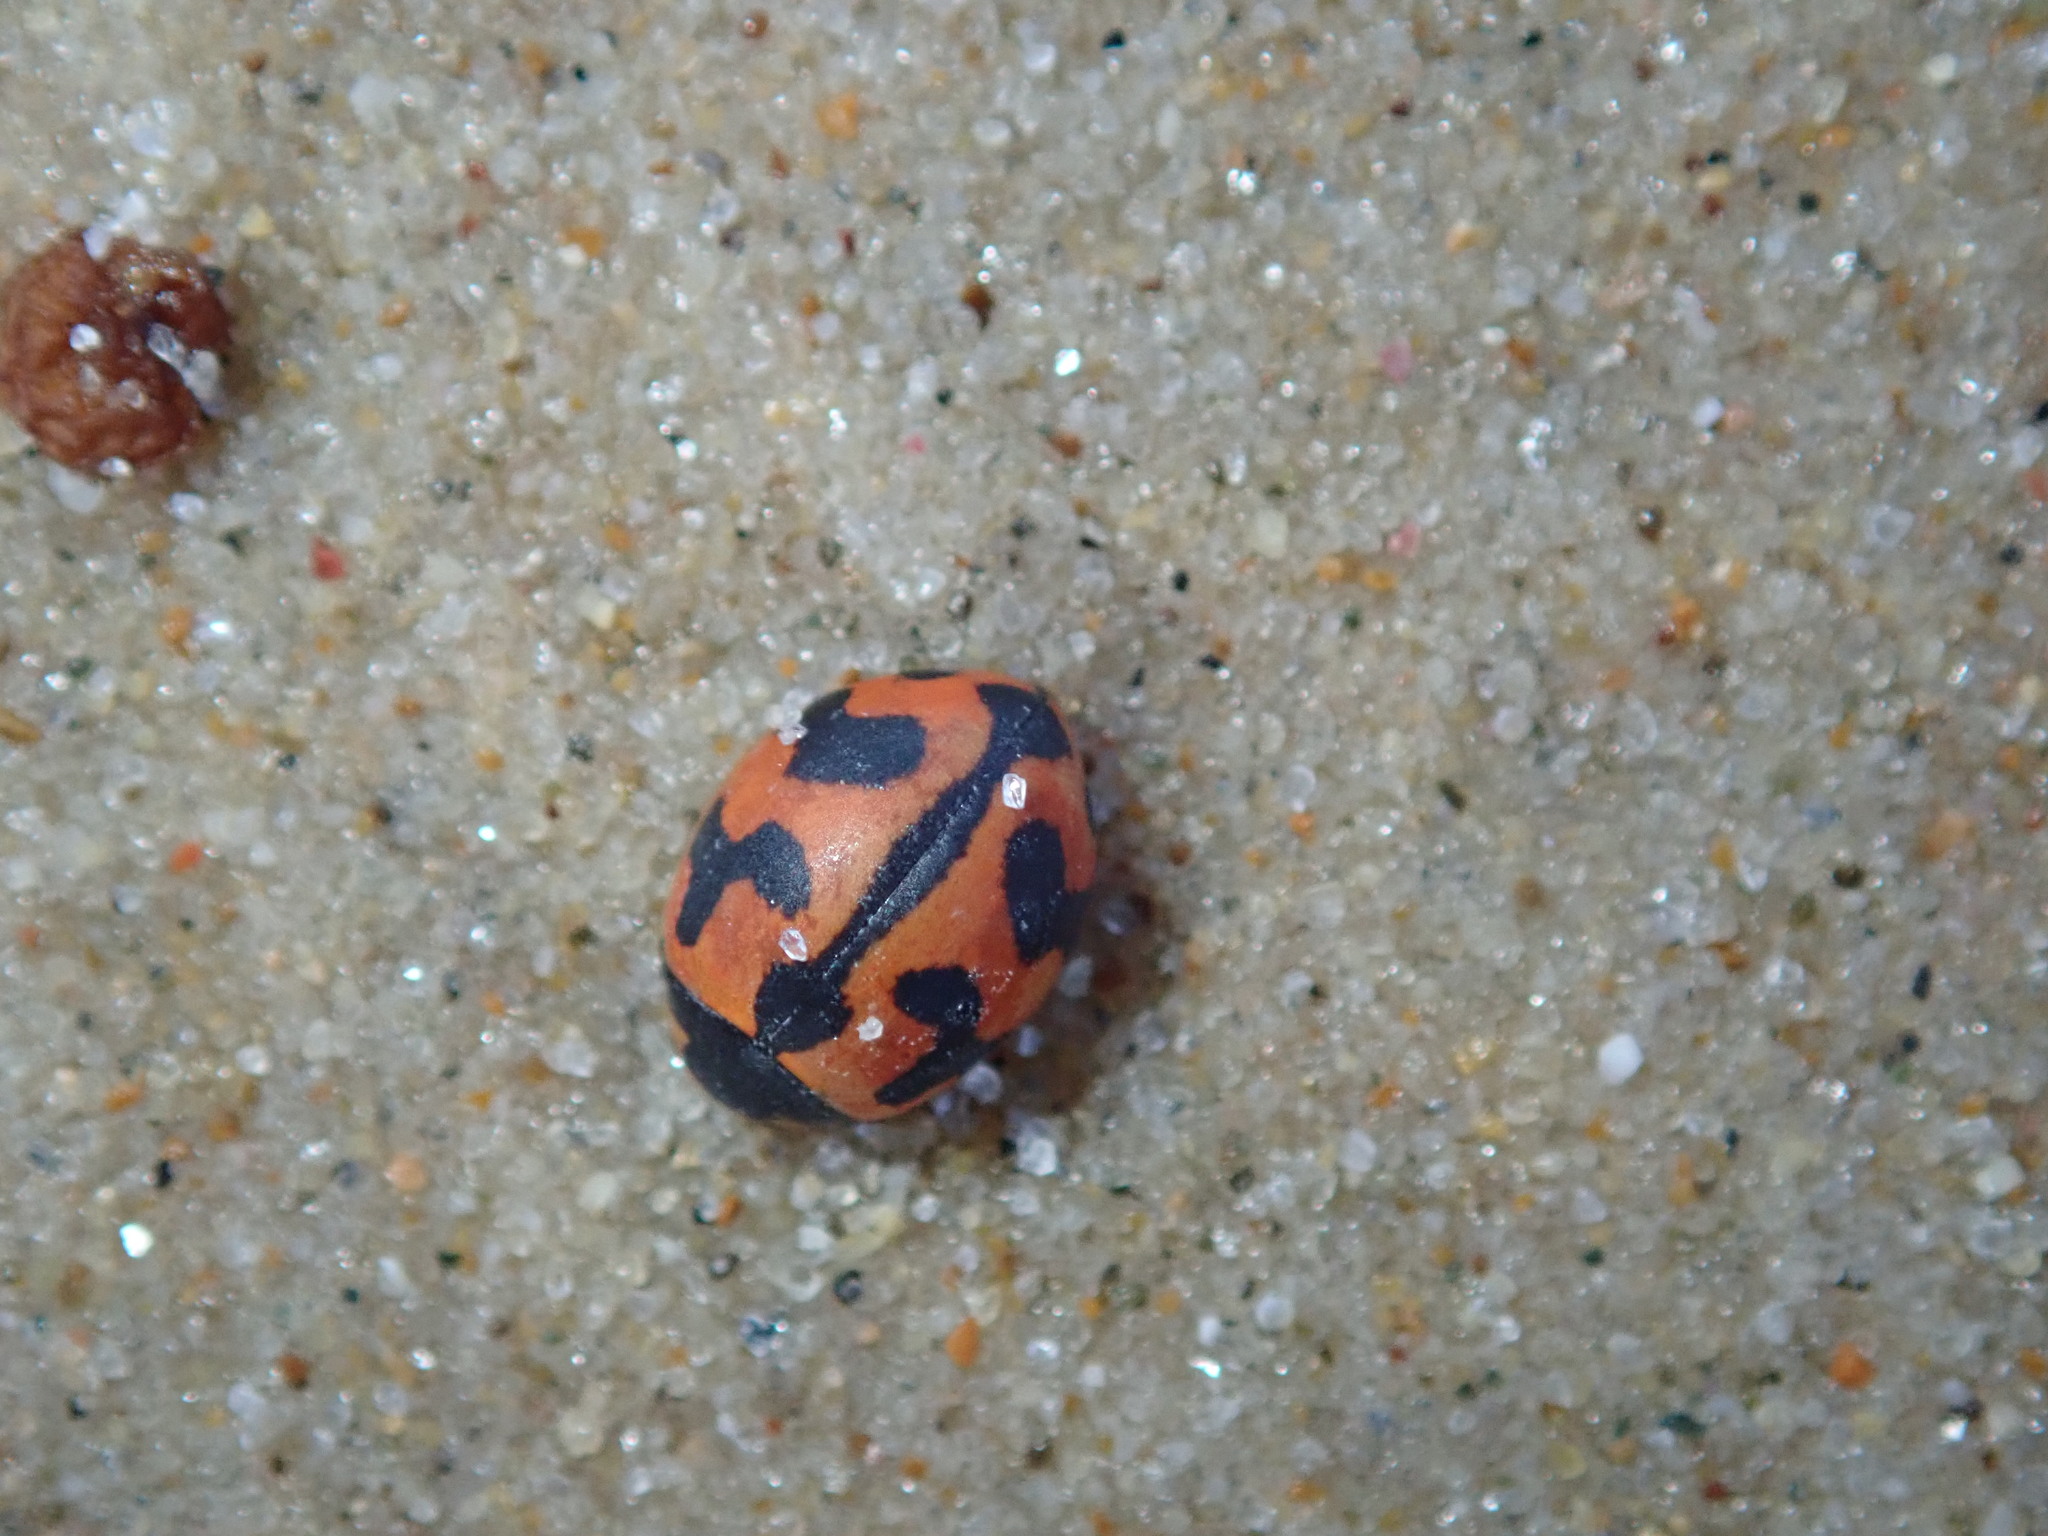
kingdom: Animalia
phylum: Arthropoda
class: Insecta
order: Coleoptera
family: Coccinellidae
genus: Coccinella
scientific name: Coccinella transversalis
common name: Transverse lady beetle
